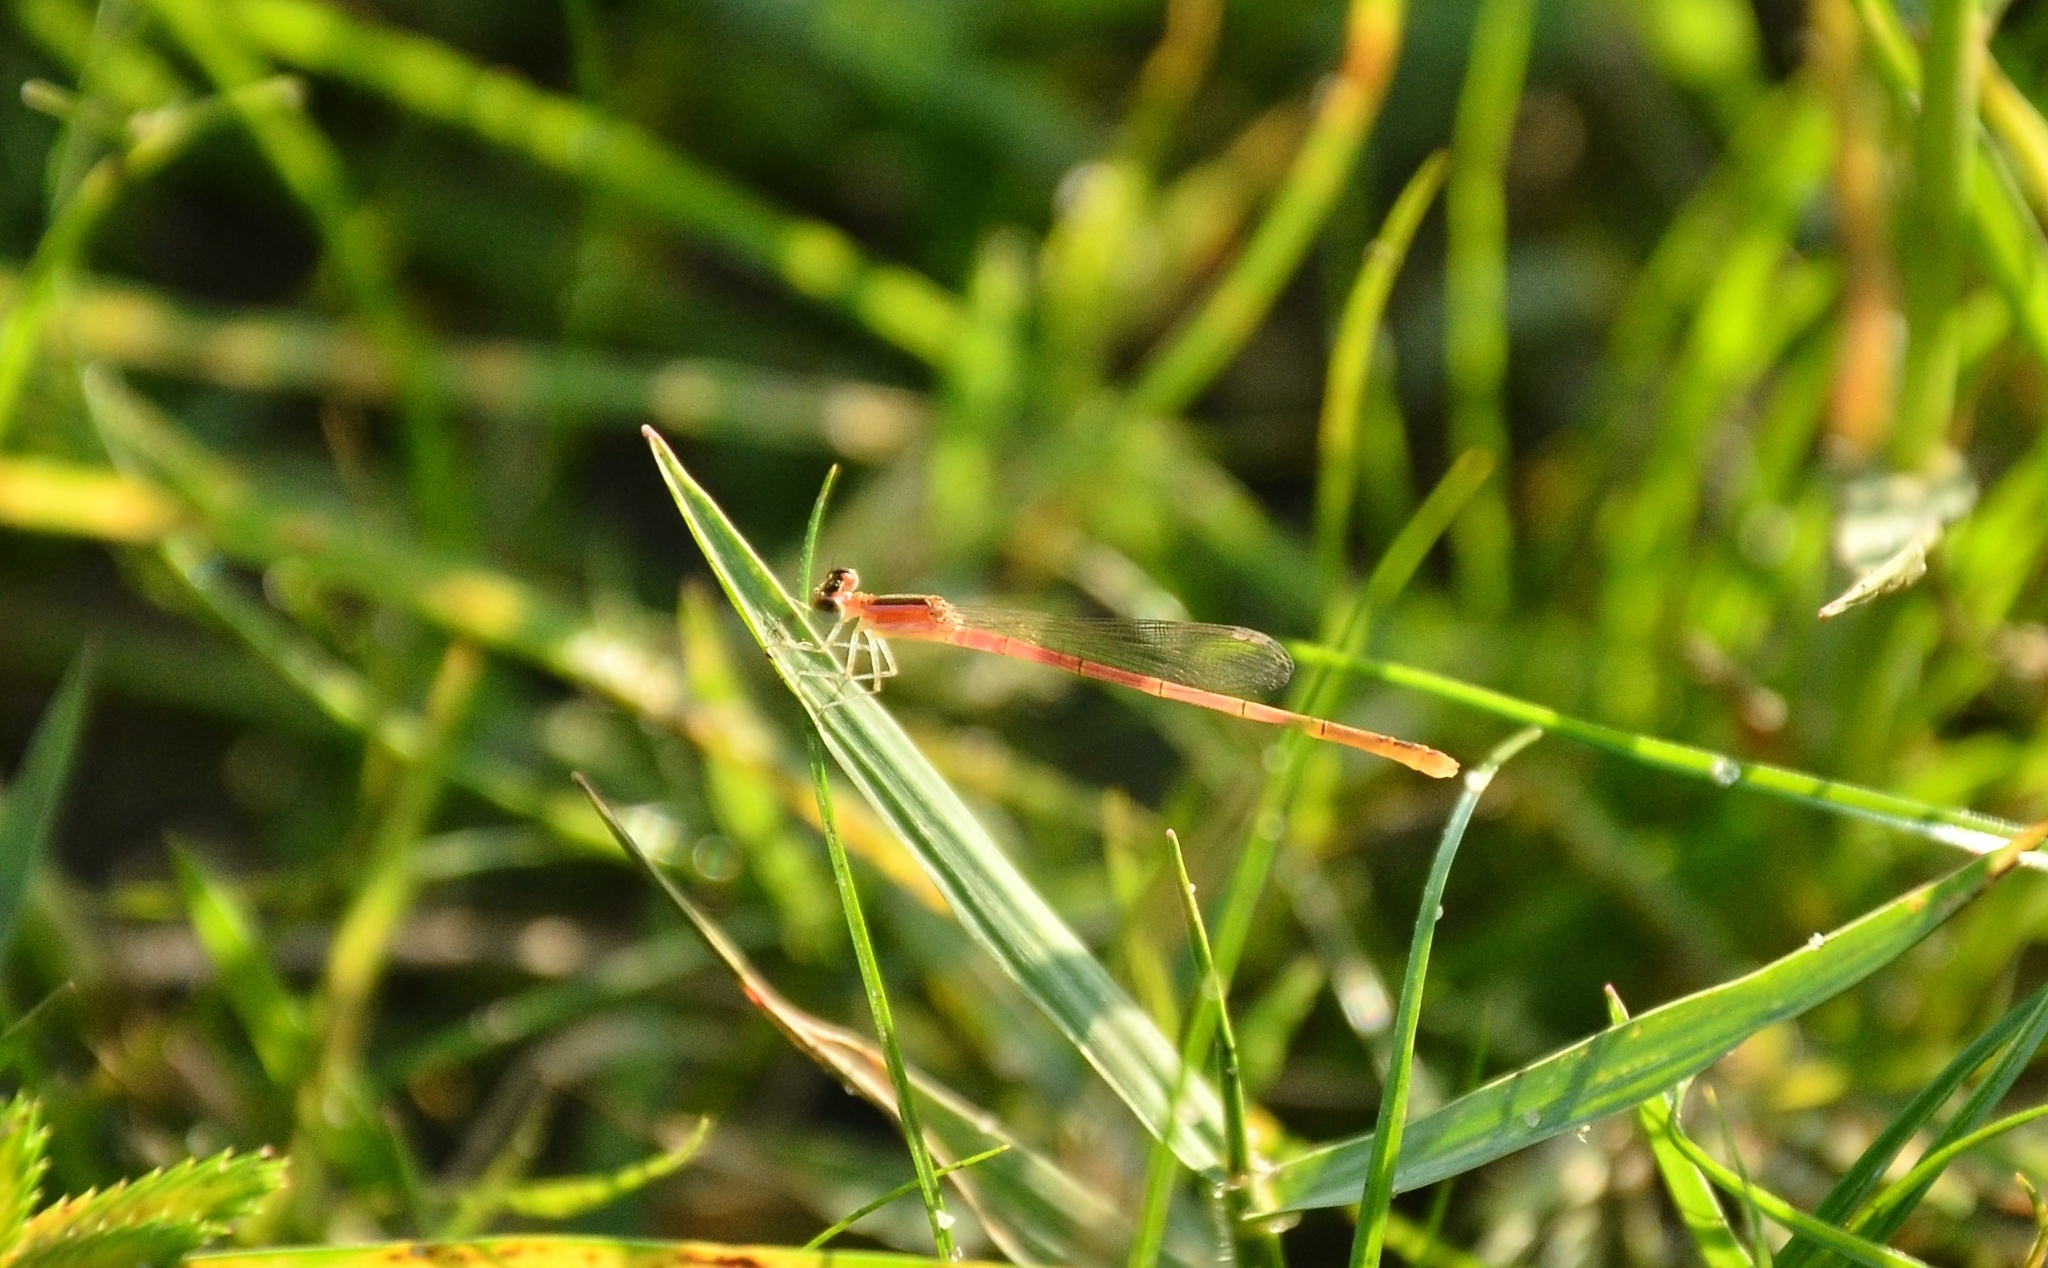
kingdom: Animalia
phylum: Arthropoda
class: Insecta
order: Odonata
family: Coenagrionidae
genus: Agriocnemis
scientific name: Agriocnemis pygmaea
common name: Pygmy wisp
